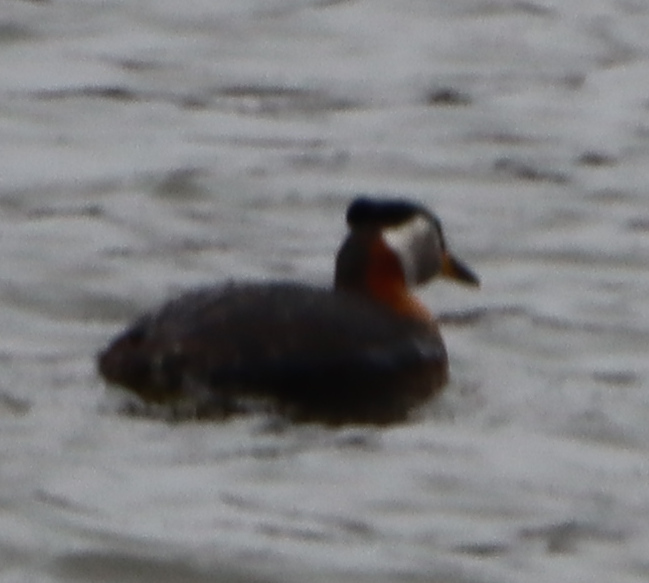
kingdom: Animalia
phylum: Chordata
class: Aves
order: Podicipediformes
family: Podicipedidae
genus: Podiceps
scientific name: Podiceps grisegena
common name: Red-necked grebe
